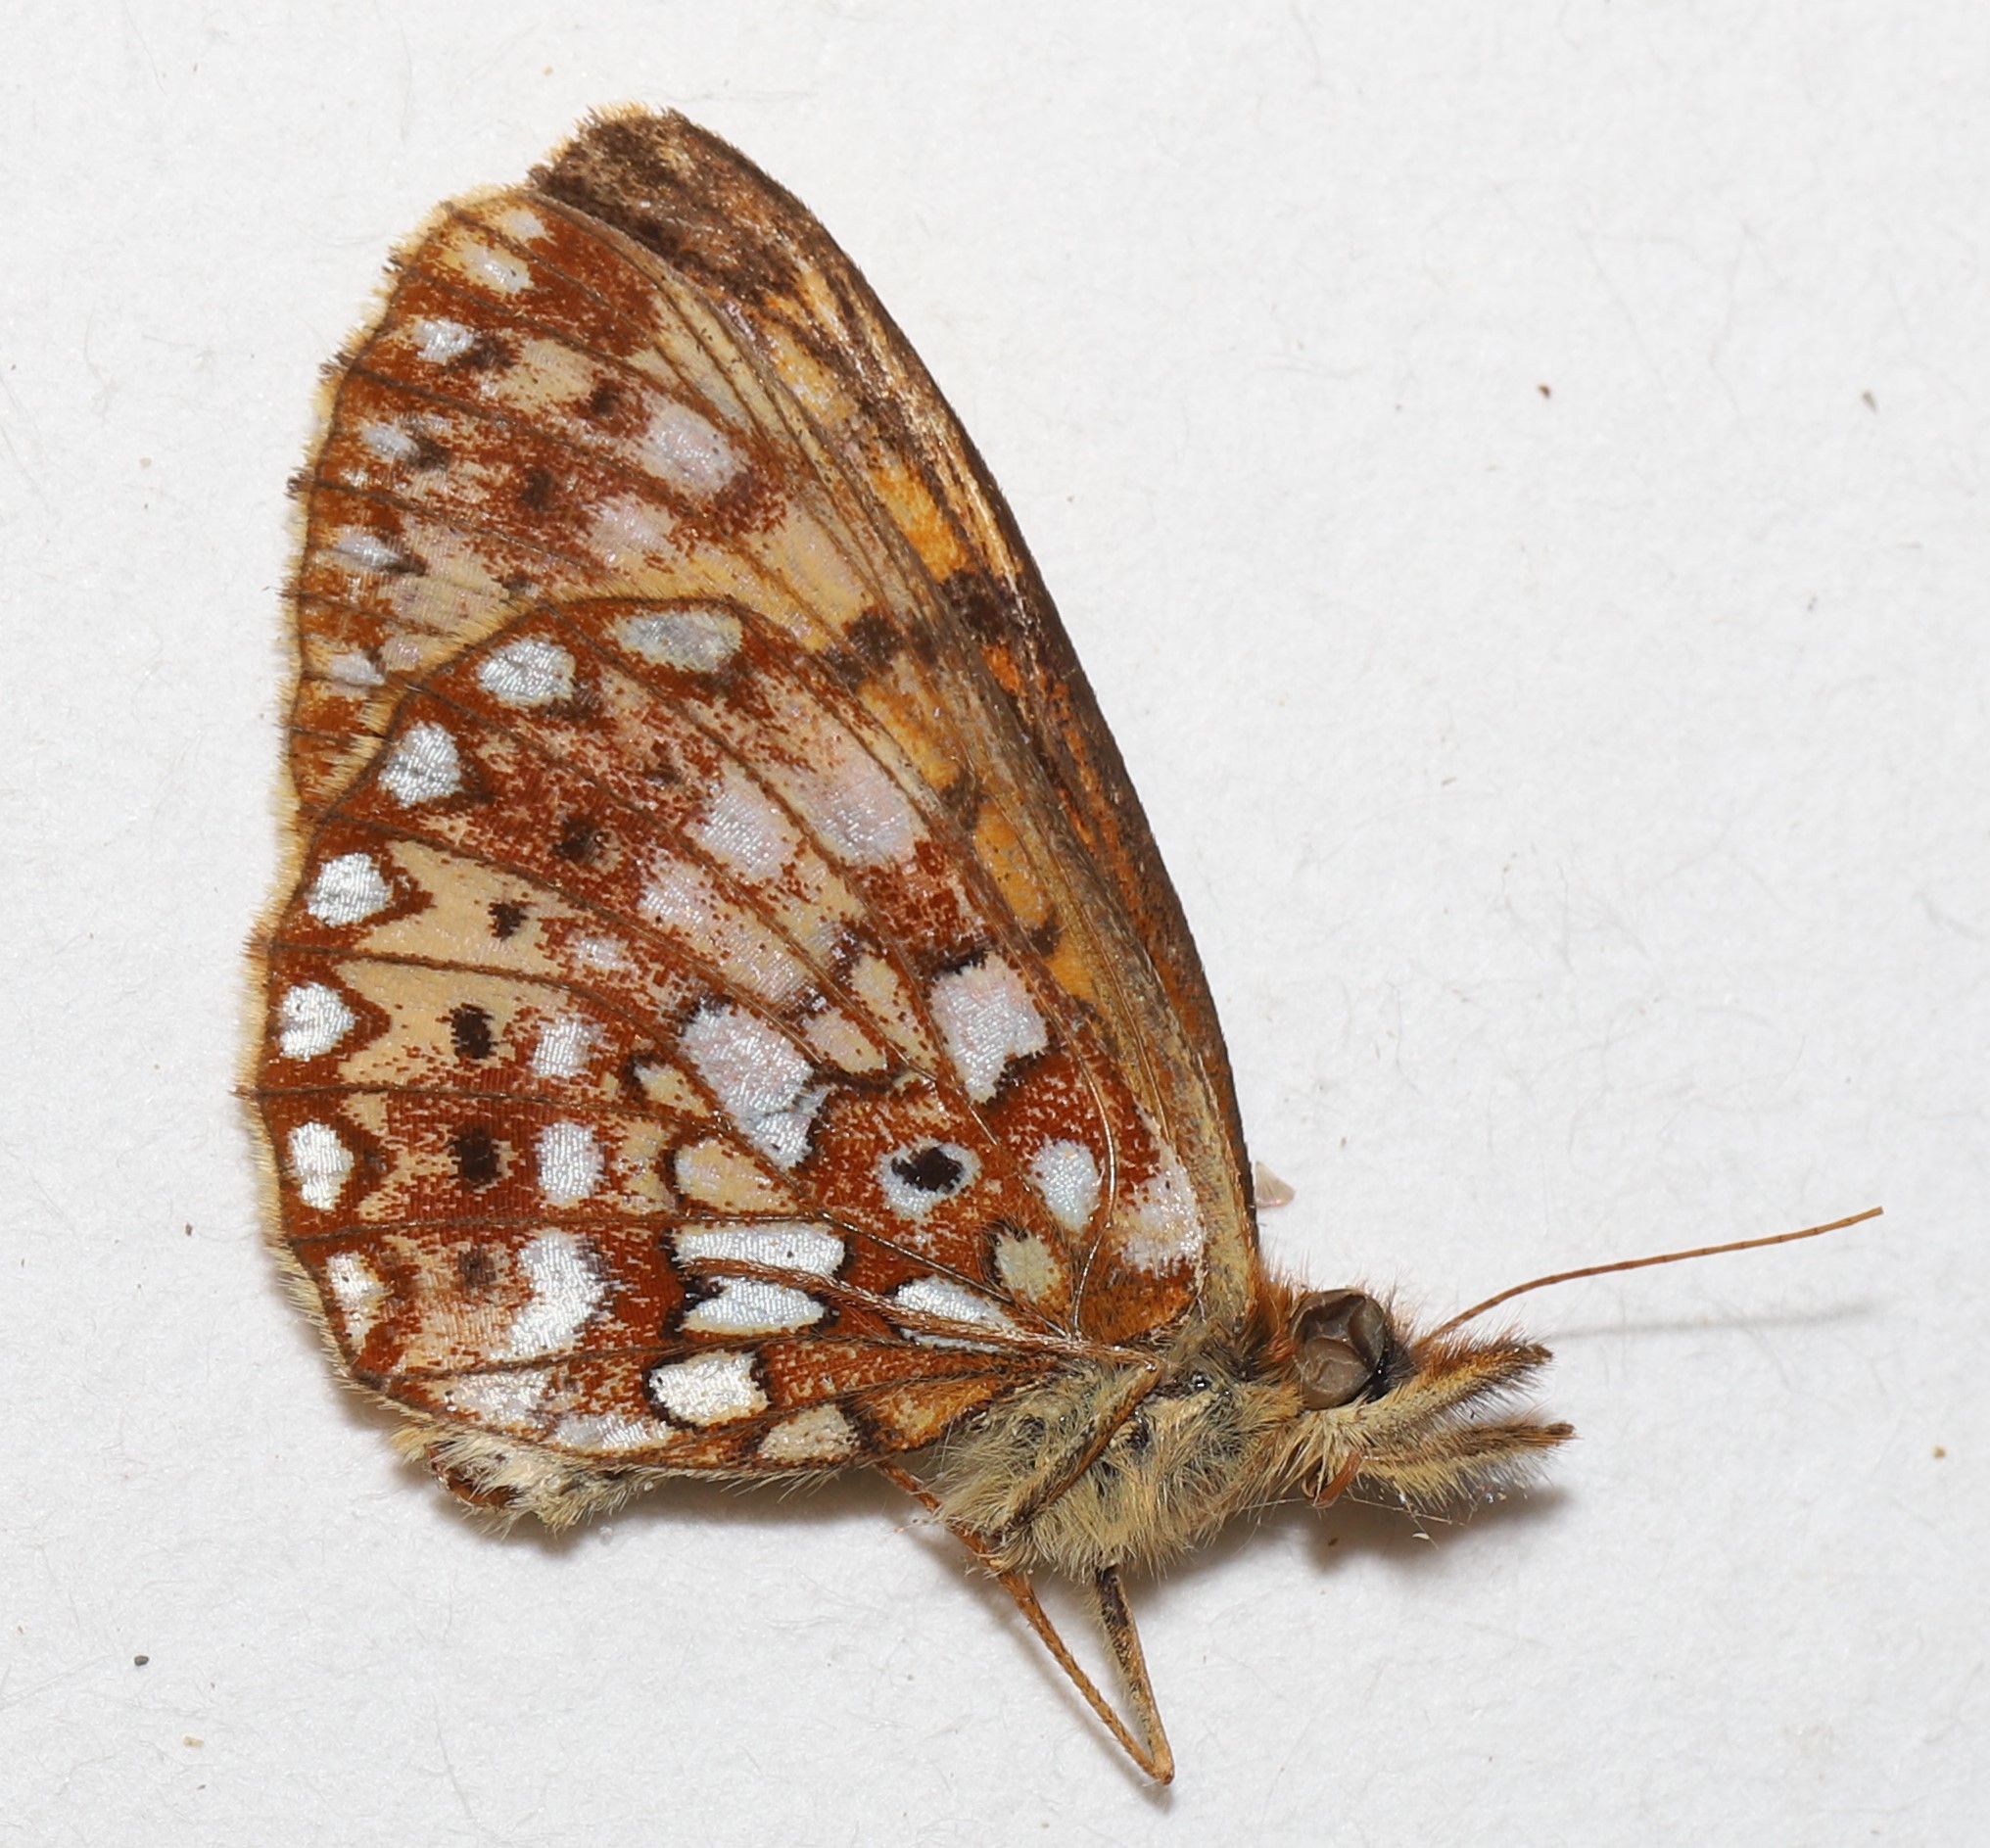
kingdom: Animalia
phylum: Arthropoda
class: Insecta
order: Lepidoptera
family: Nymphalidae
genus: Boloria
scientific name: Boloria
